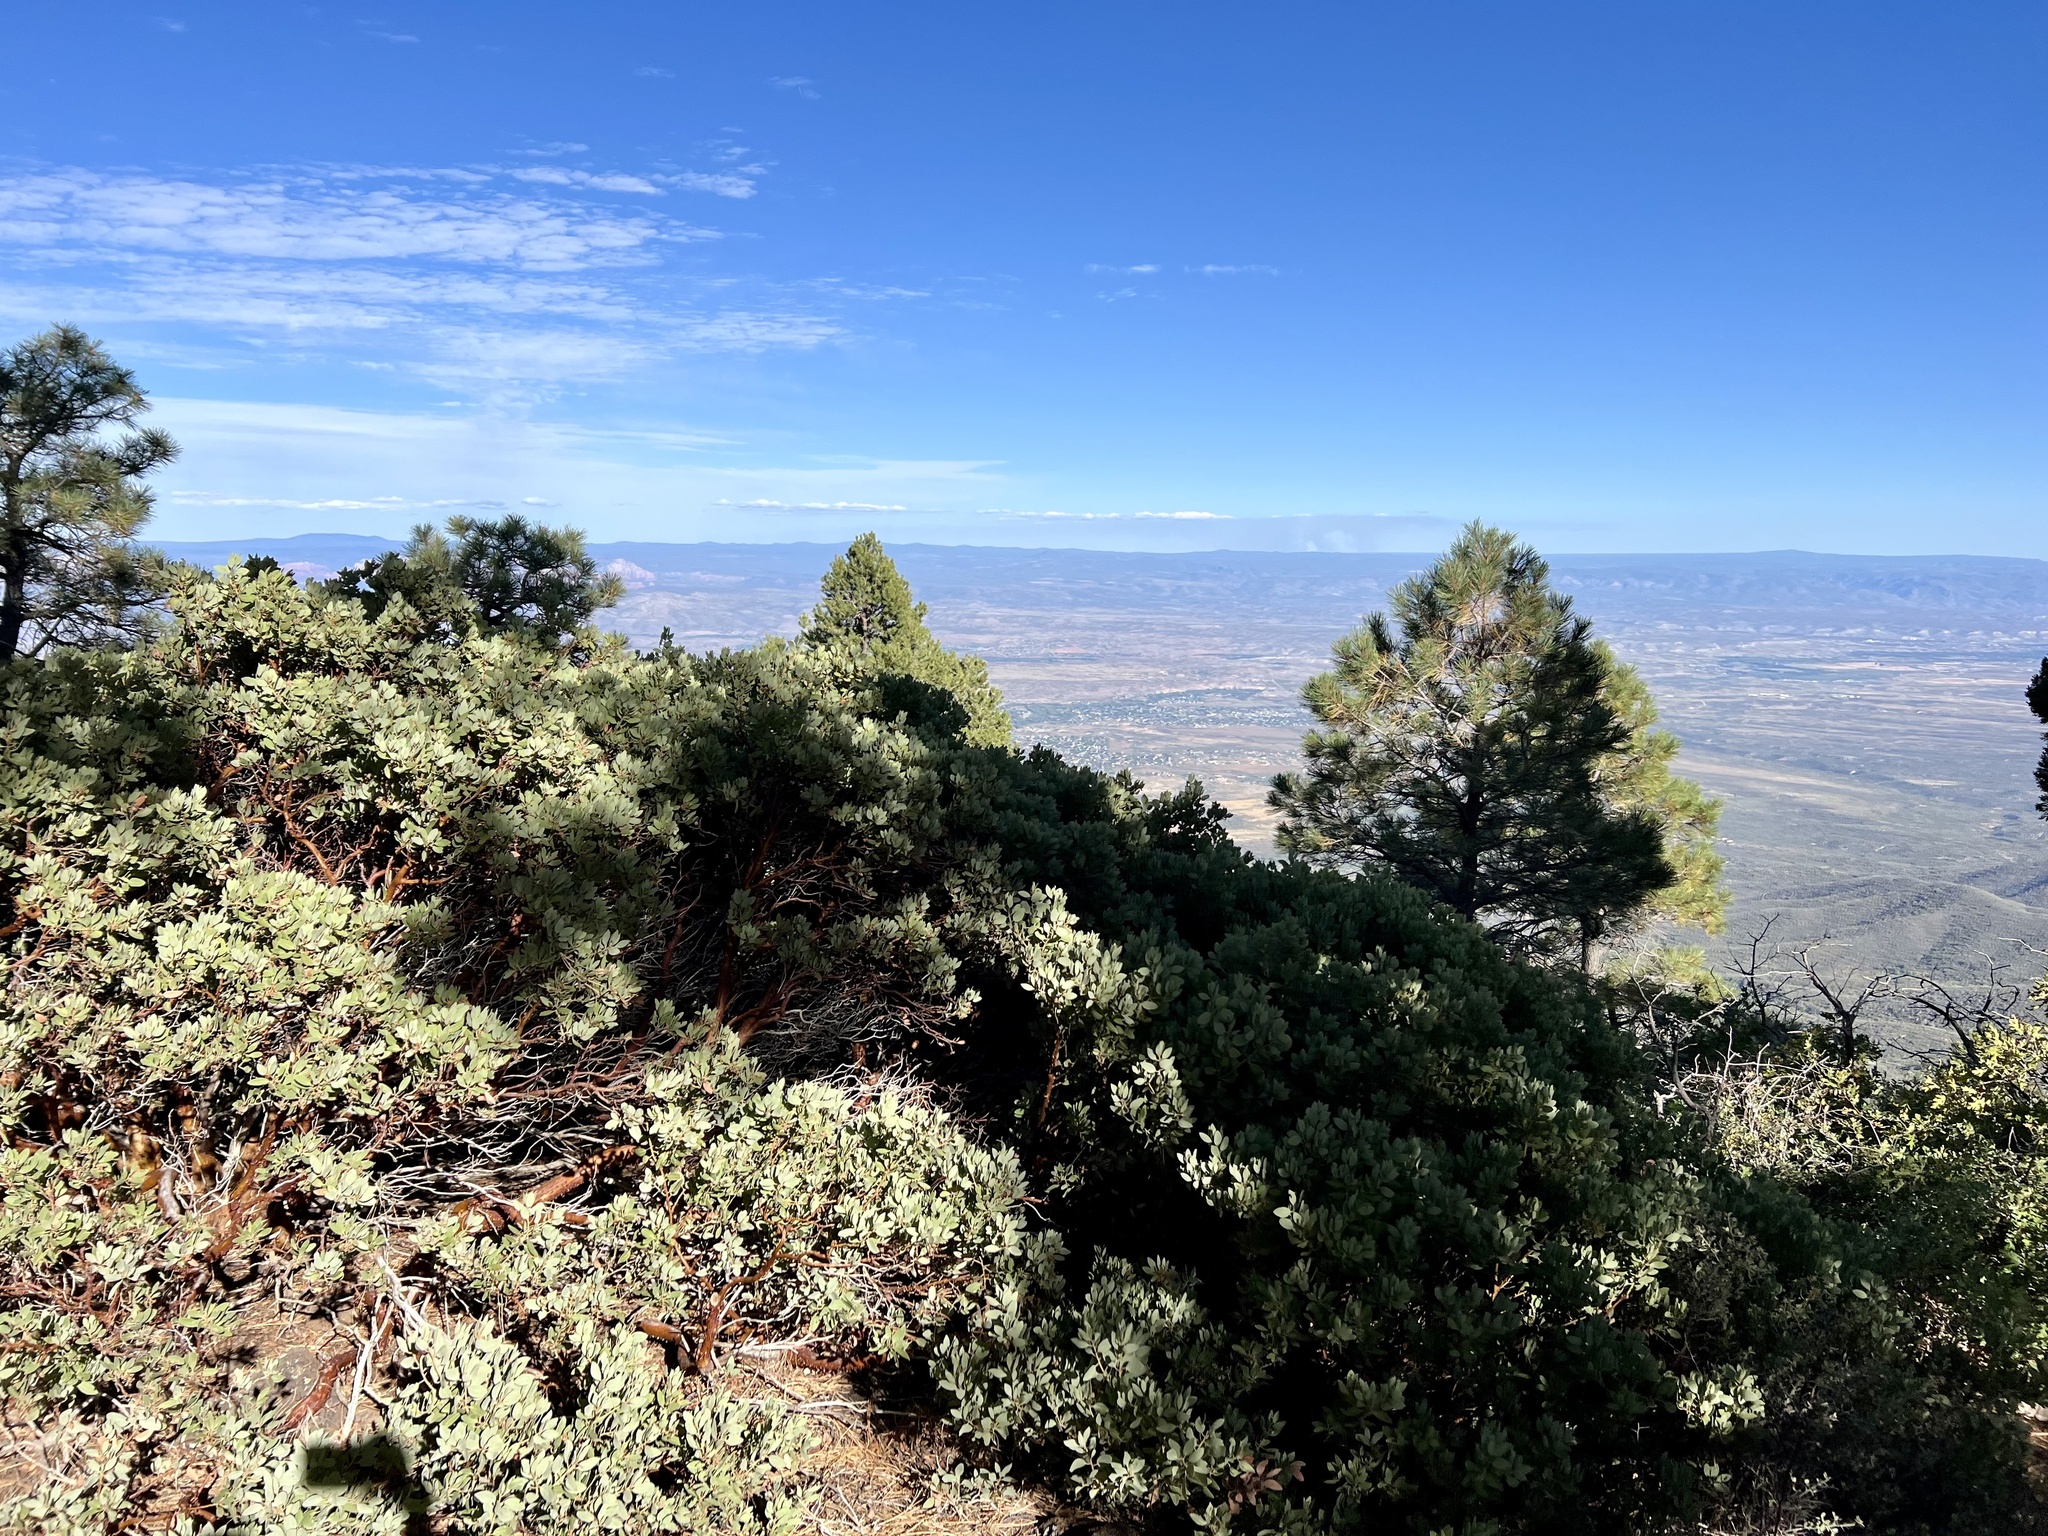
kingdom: Plantae
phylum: Tracheophyta
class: Magnoliopsida
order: Ericales
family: Ericaceae
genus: Arctostaphylos
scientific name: Arctostaphylos pringlei
